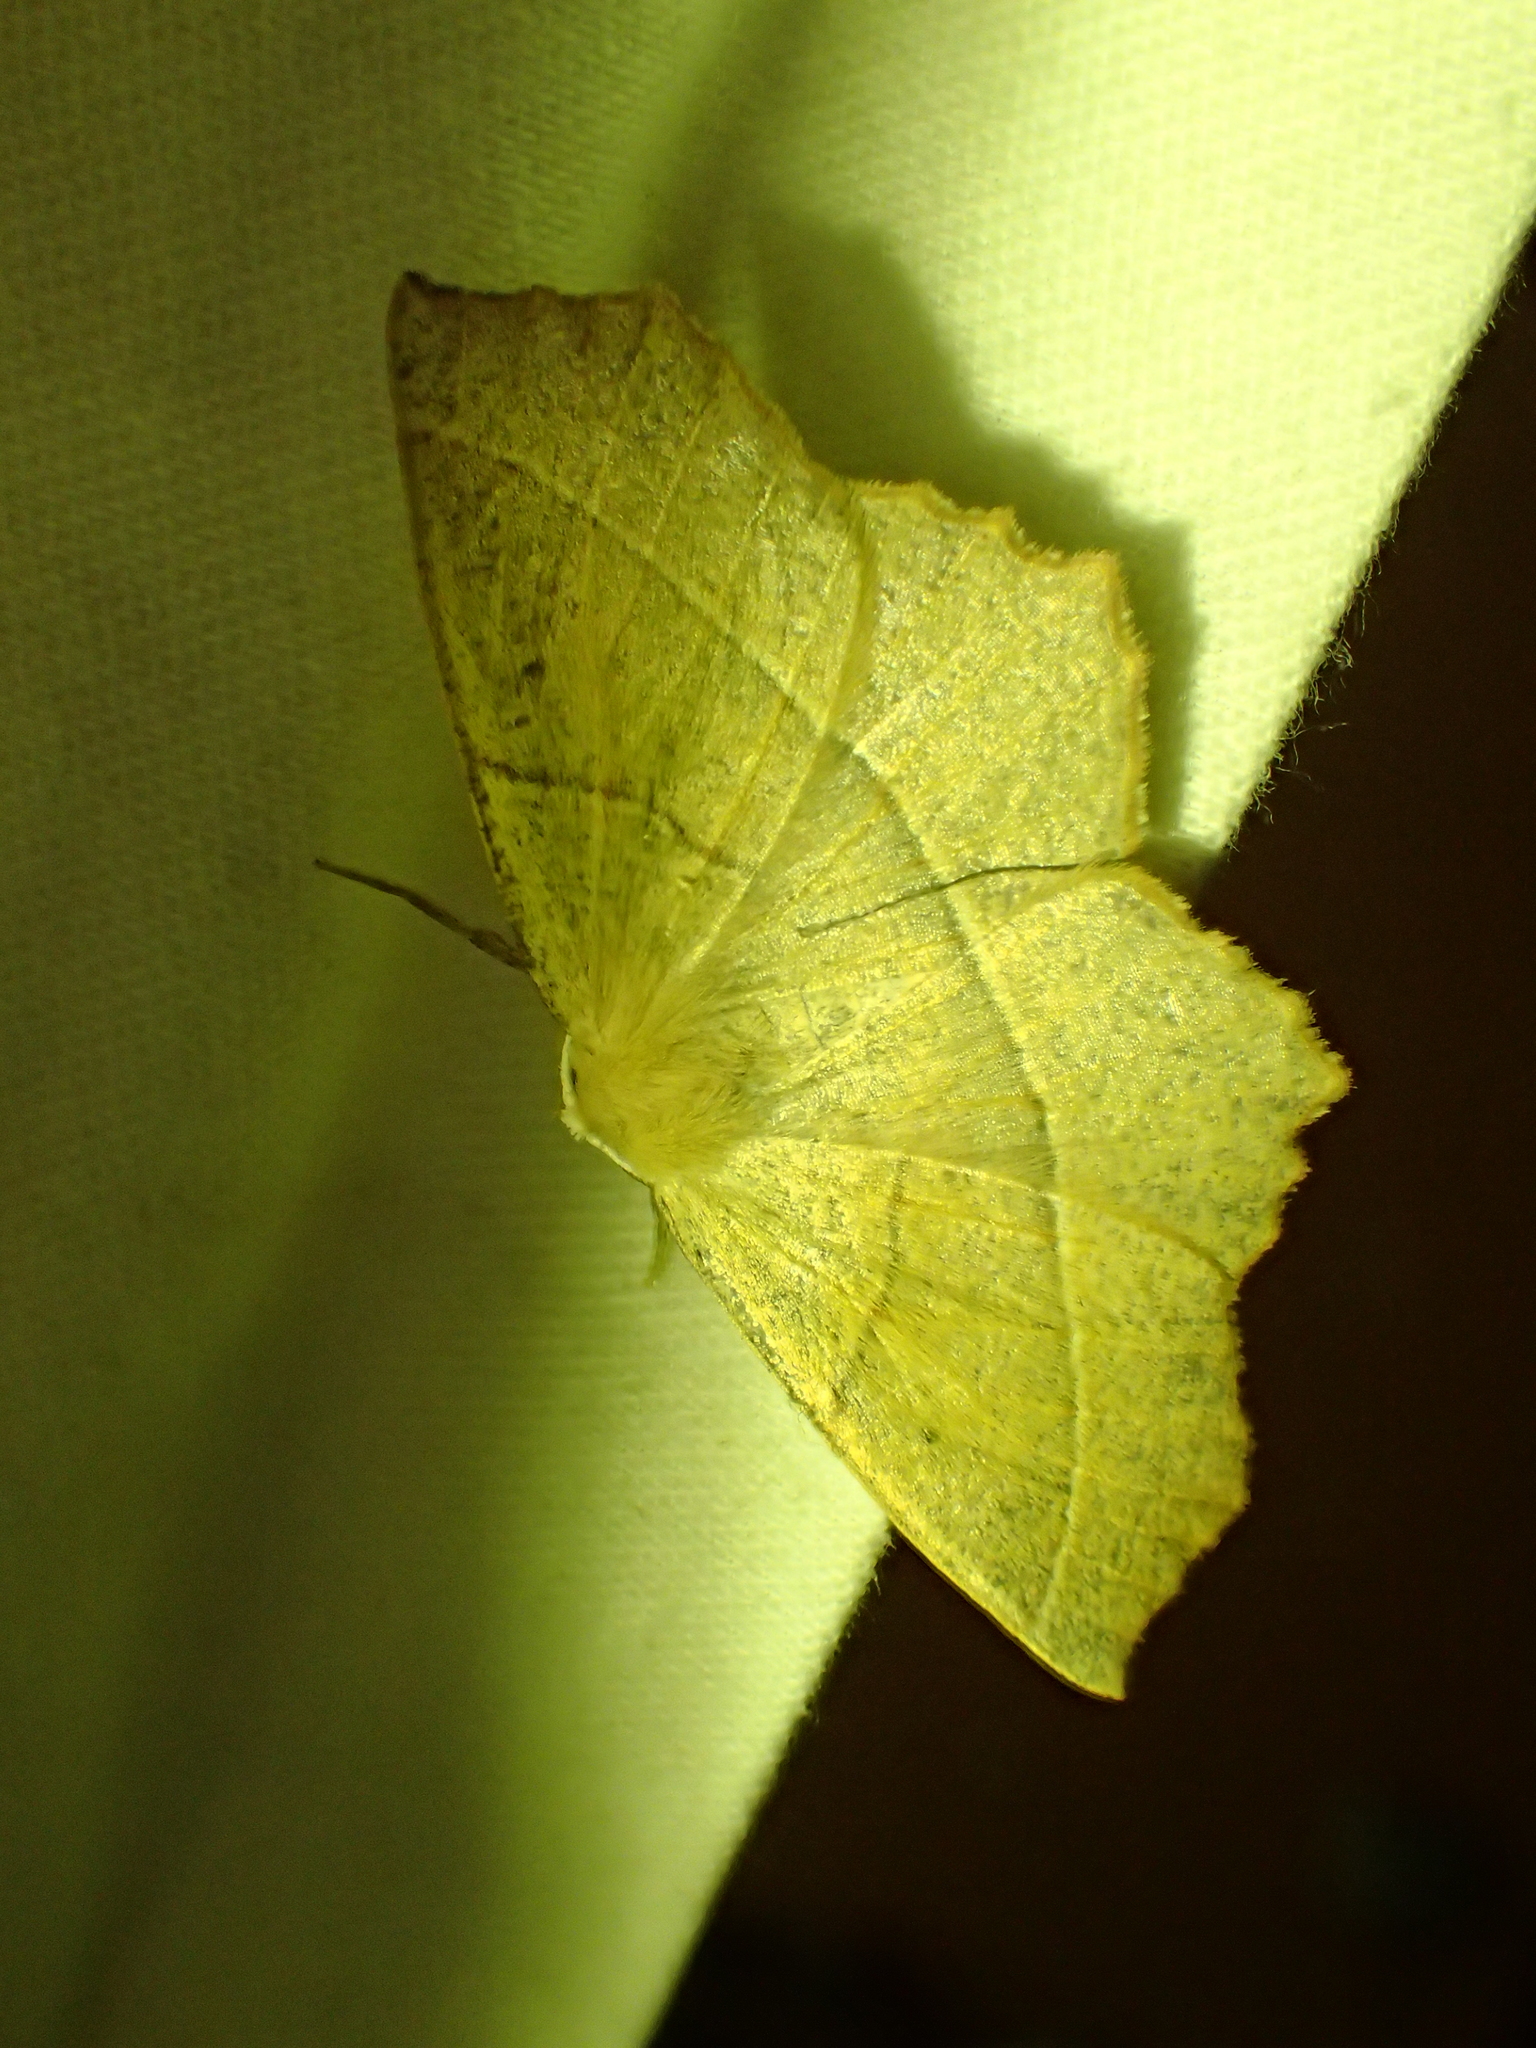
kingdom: Animalia
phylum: Arthropoda
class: Insecta
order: Lepidoptera
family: Geometridae
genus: Gerinia
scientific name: Gerinia honoraria
